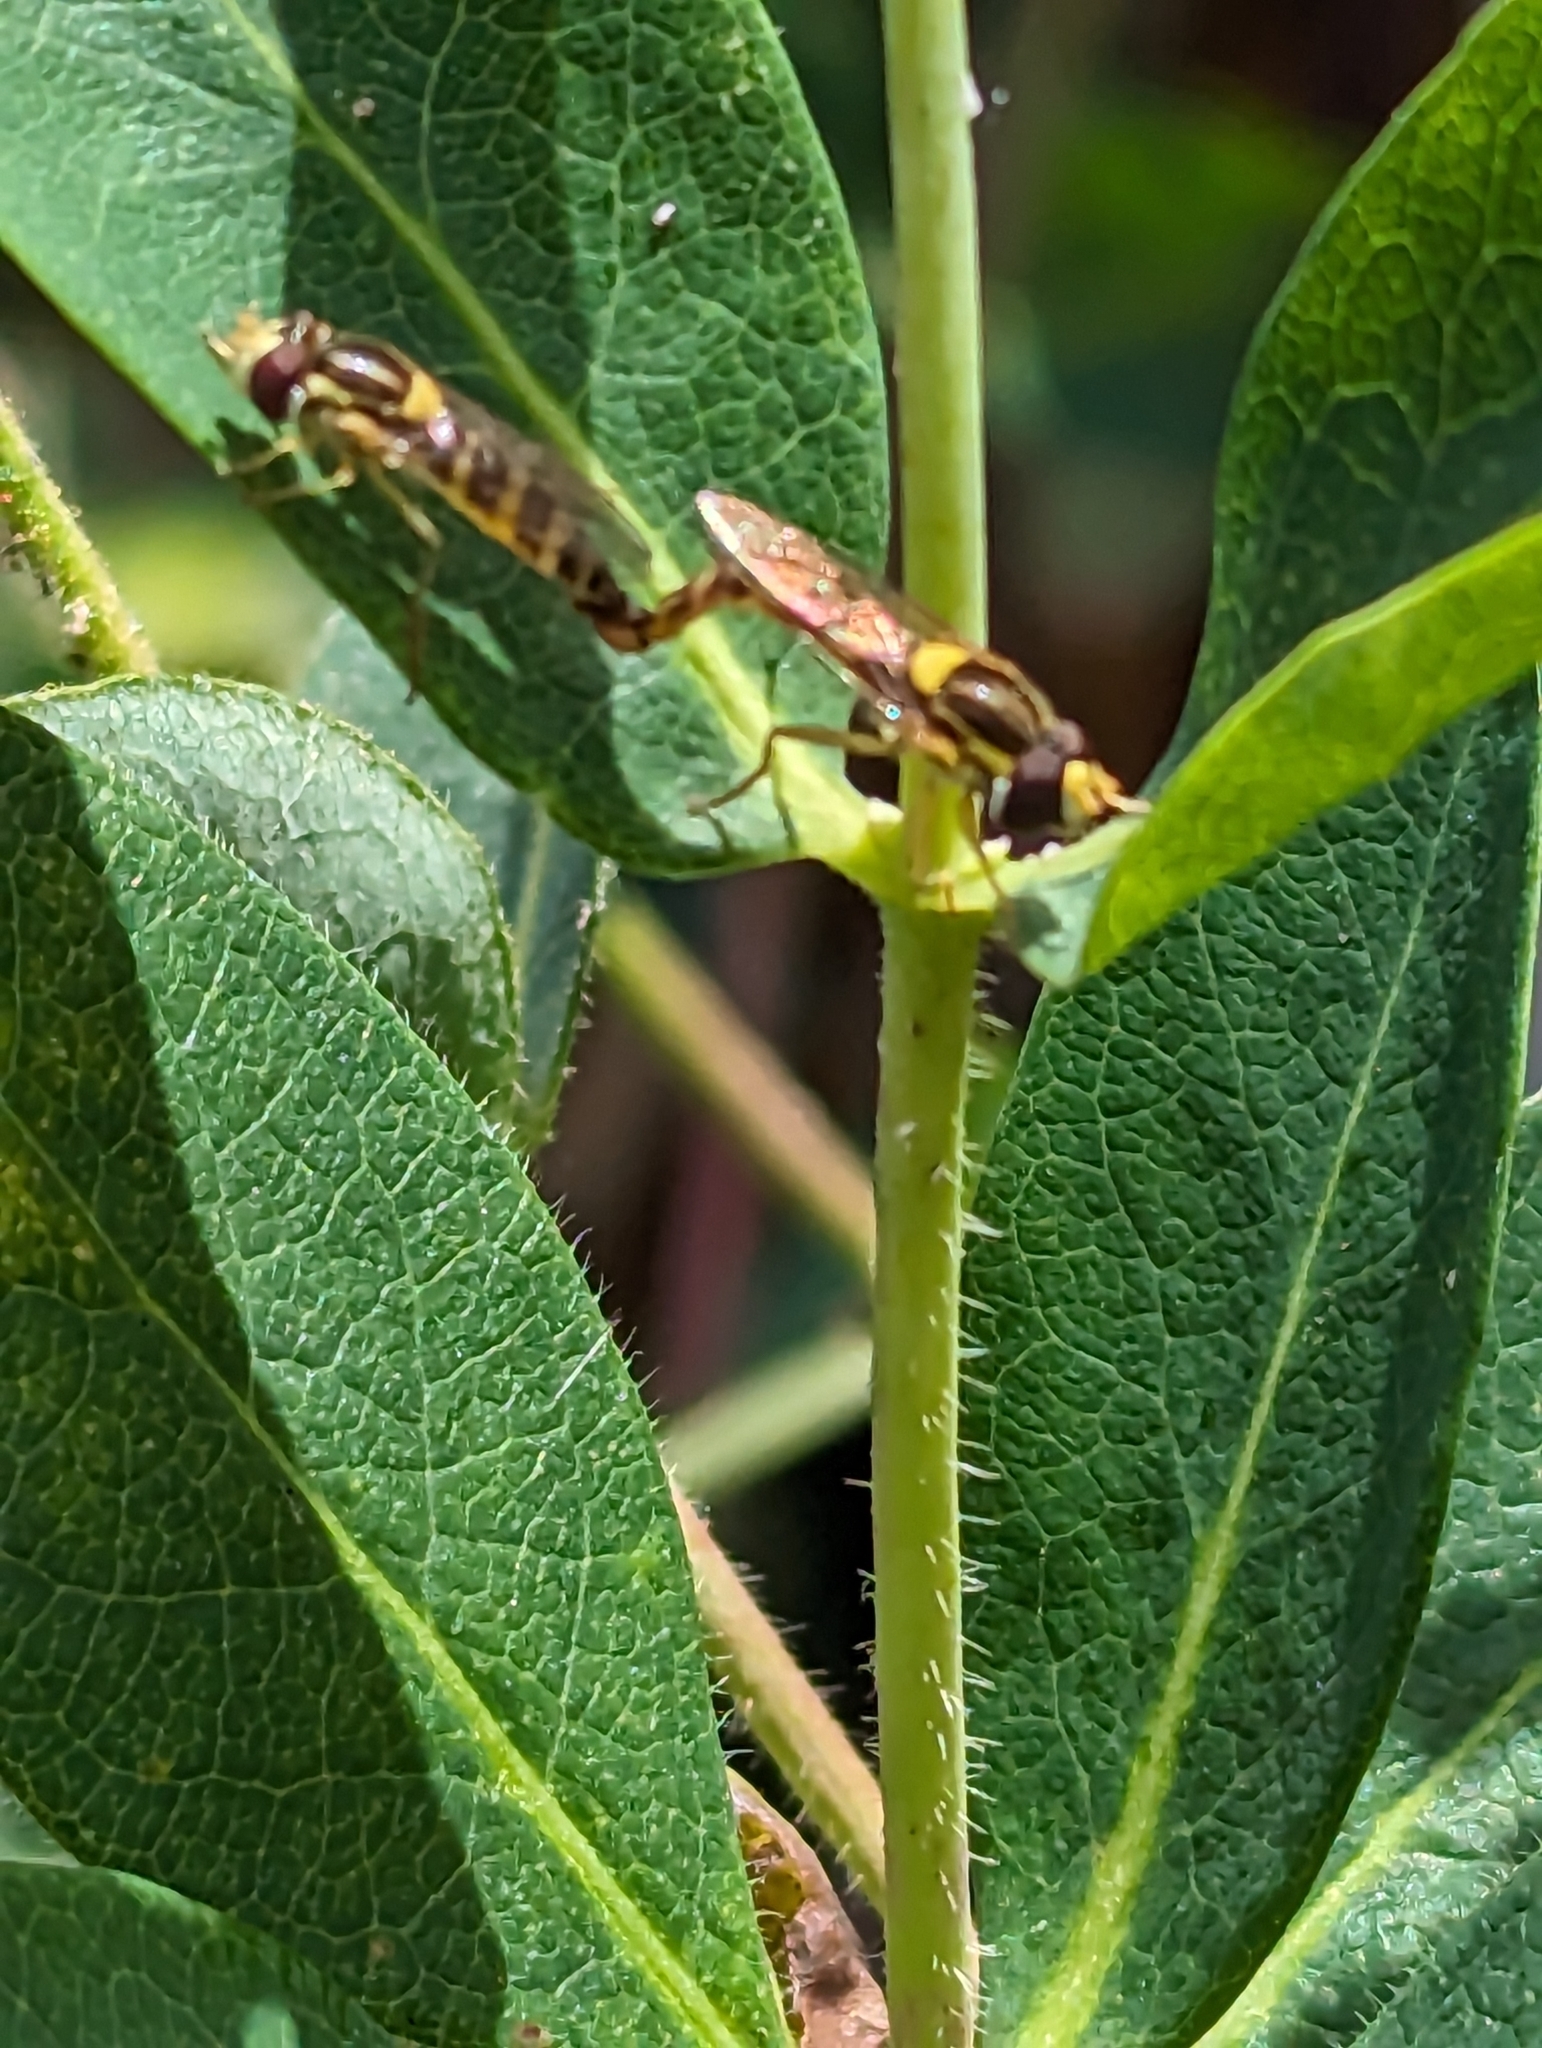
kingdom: Animalia
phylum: Arthropoda
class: Insecta
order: Diptera
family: Syrphidae
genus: Sphaerophoria
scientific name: Sphaerophoria scripta
